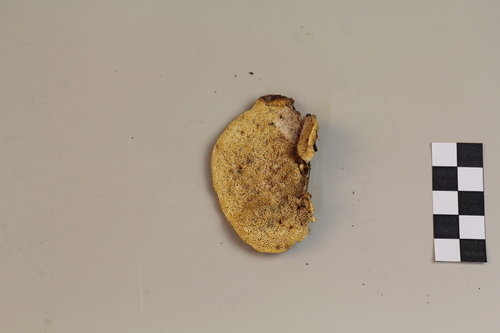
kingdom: Fungi
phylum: Basidiomycota
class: Agaricomycetes
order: Polyporales
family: Pycnoporellaceae
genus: Pycnoporellus
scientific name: Pycnoporellus fulgens
